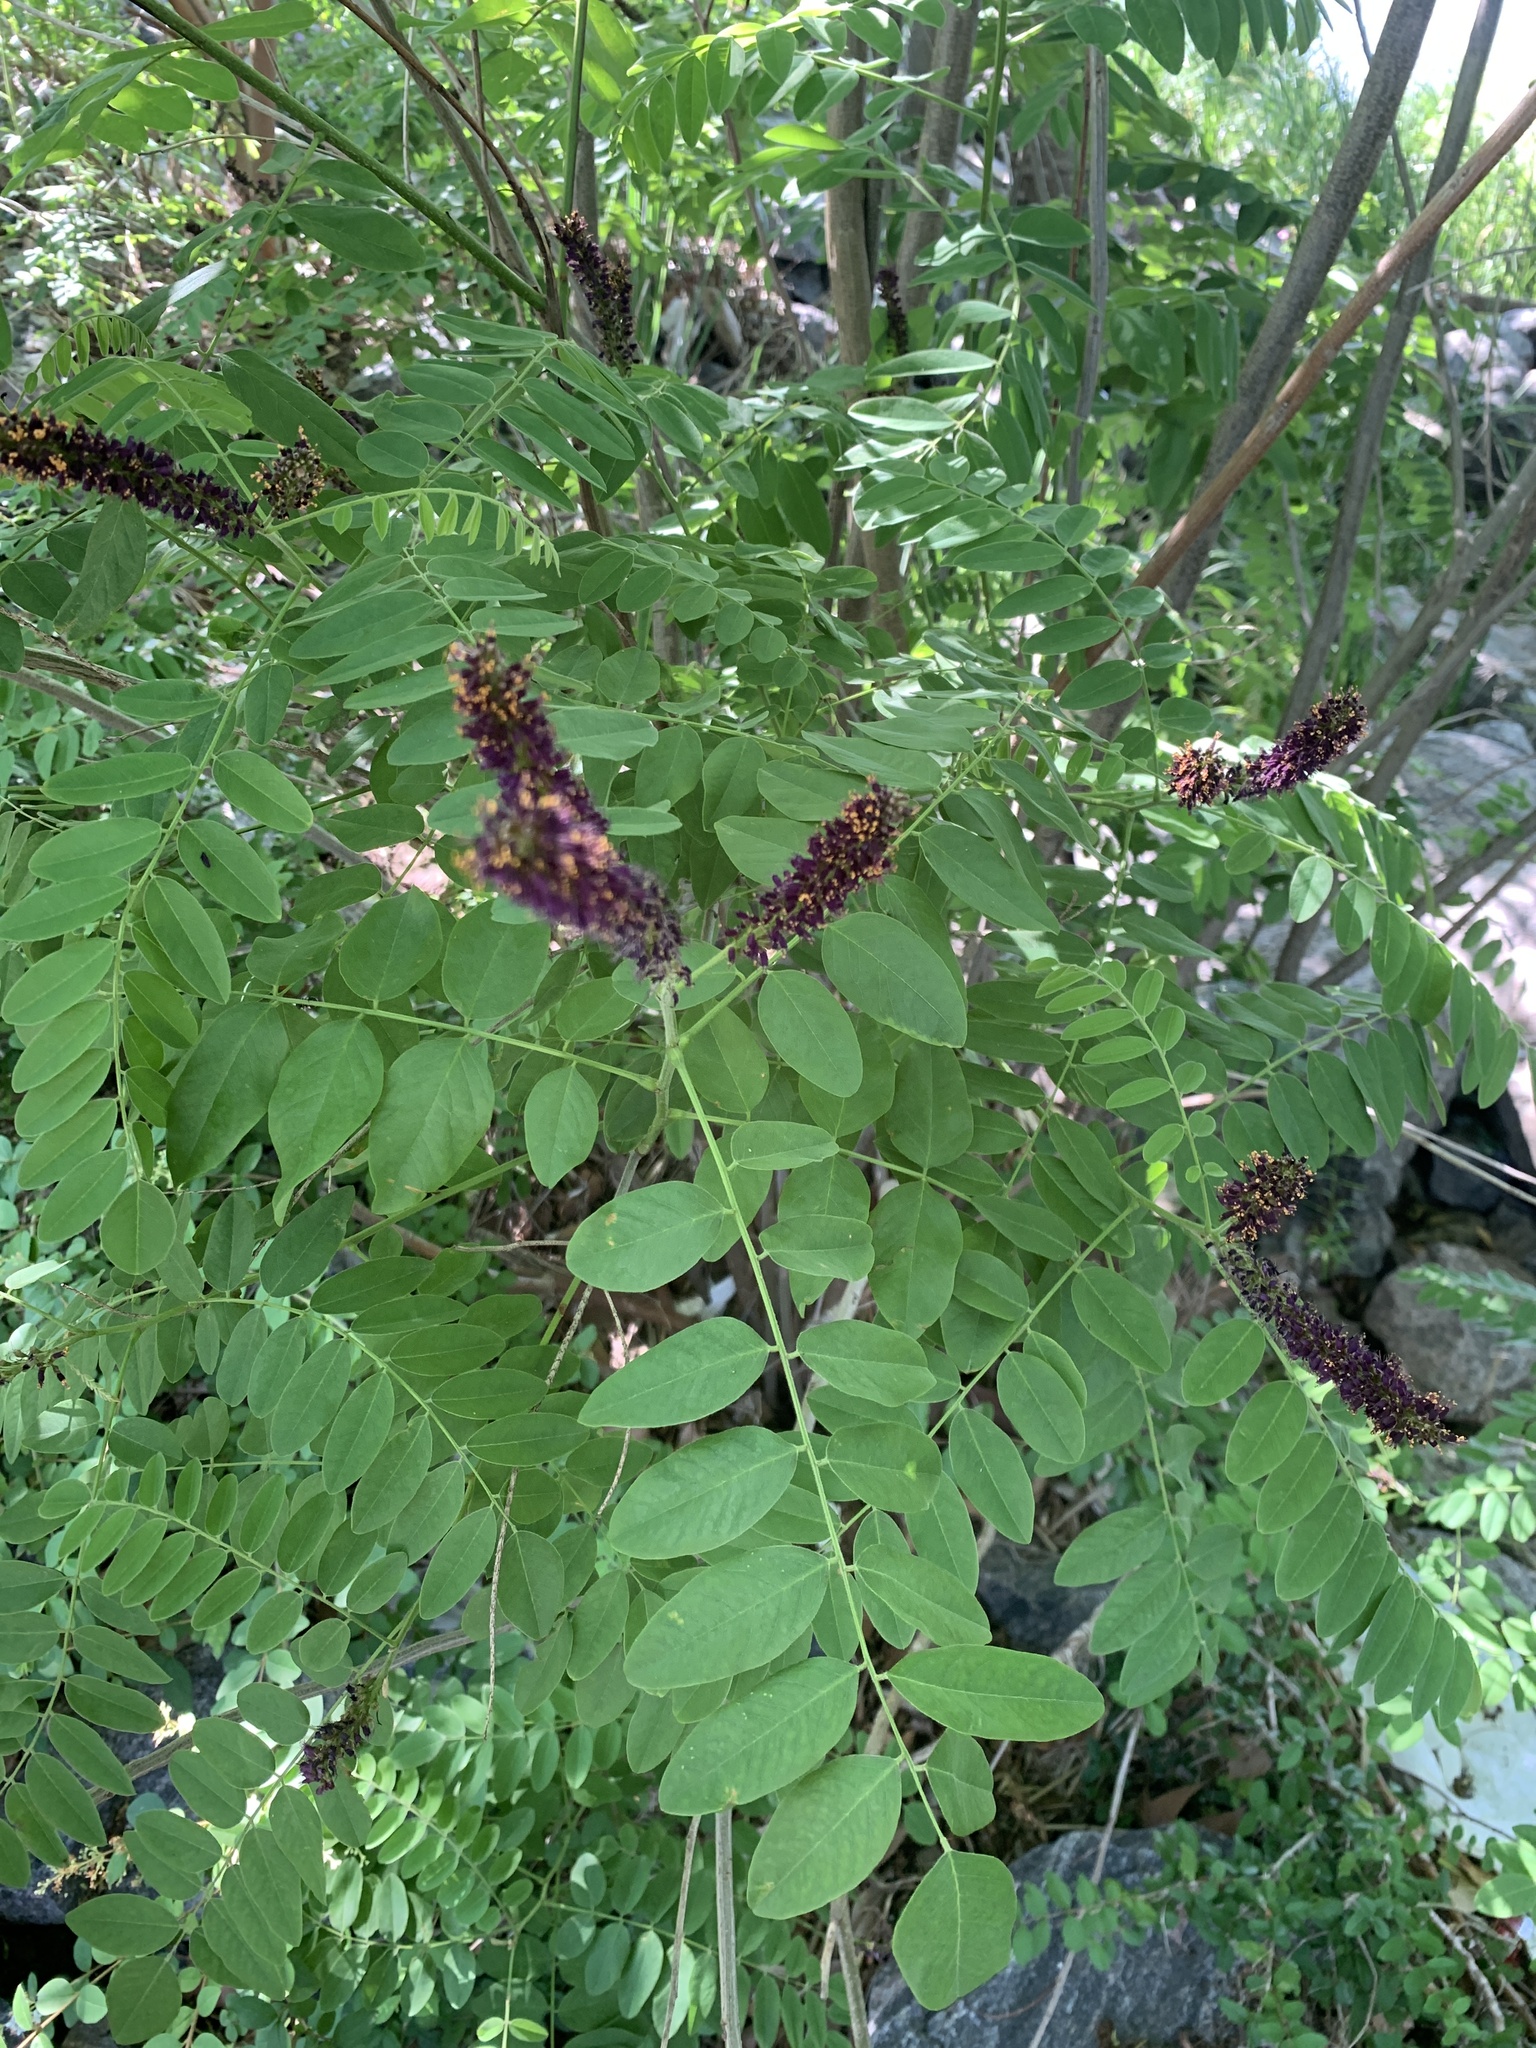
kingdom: Plantae
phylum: Tracheophyta
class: Magnoliopsida
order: Fabales
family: Fabaceae
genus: Amorpha
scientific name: Amorpha fruticosa
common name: False indigo
